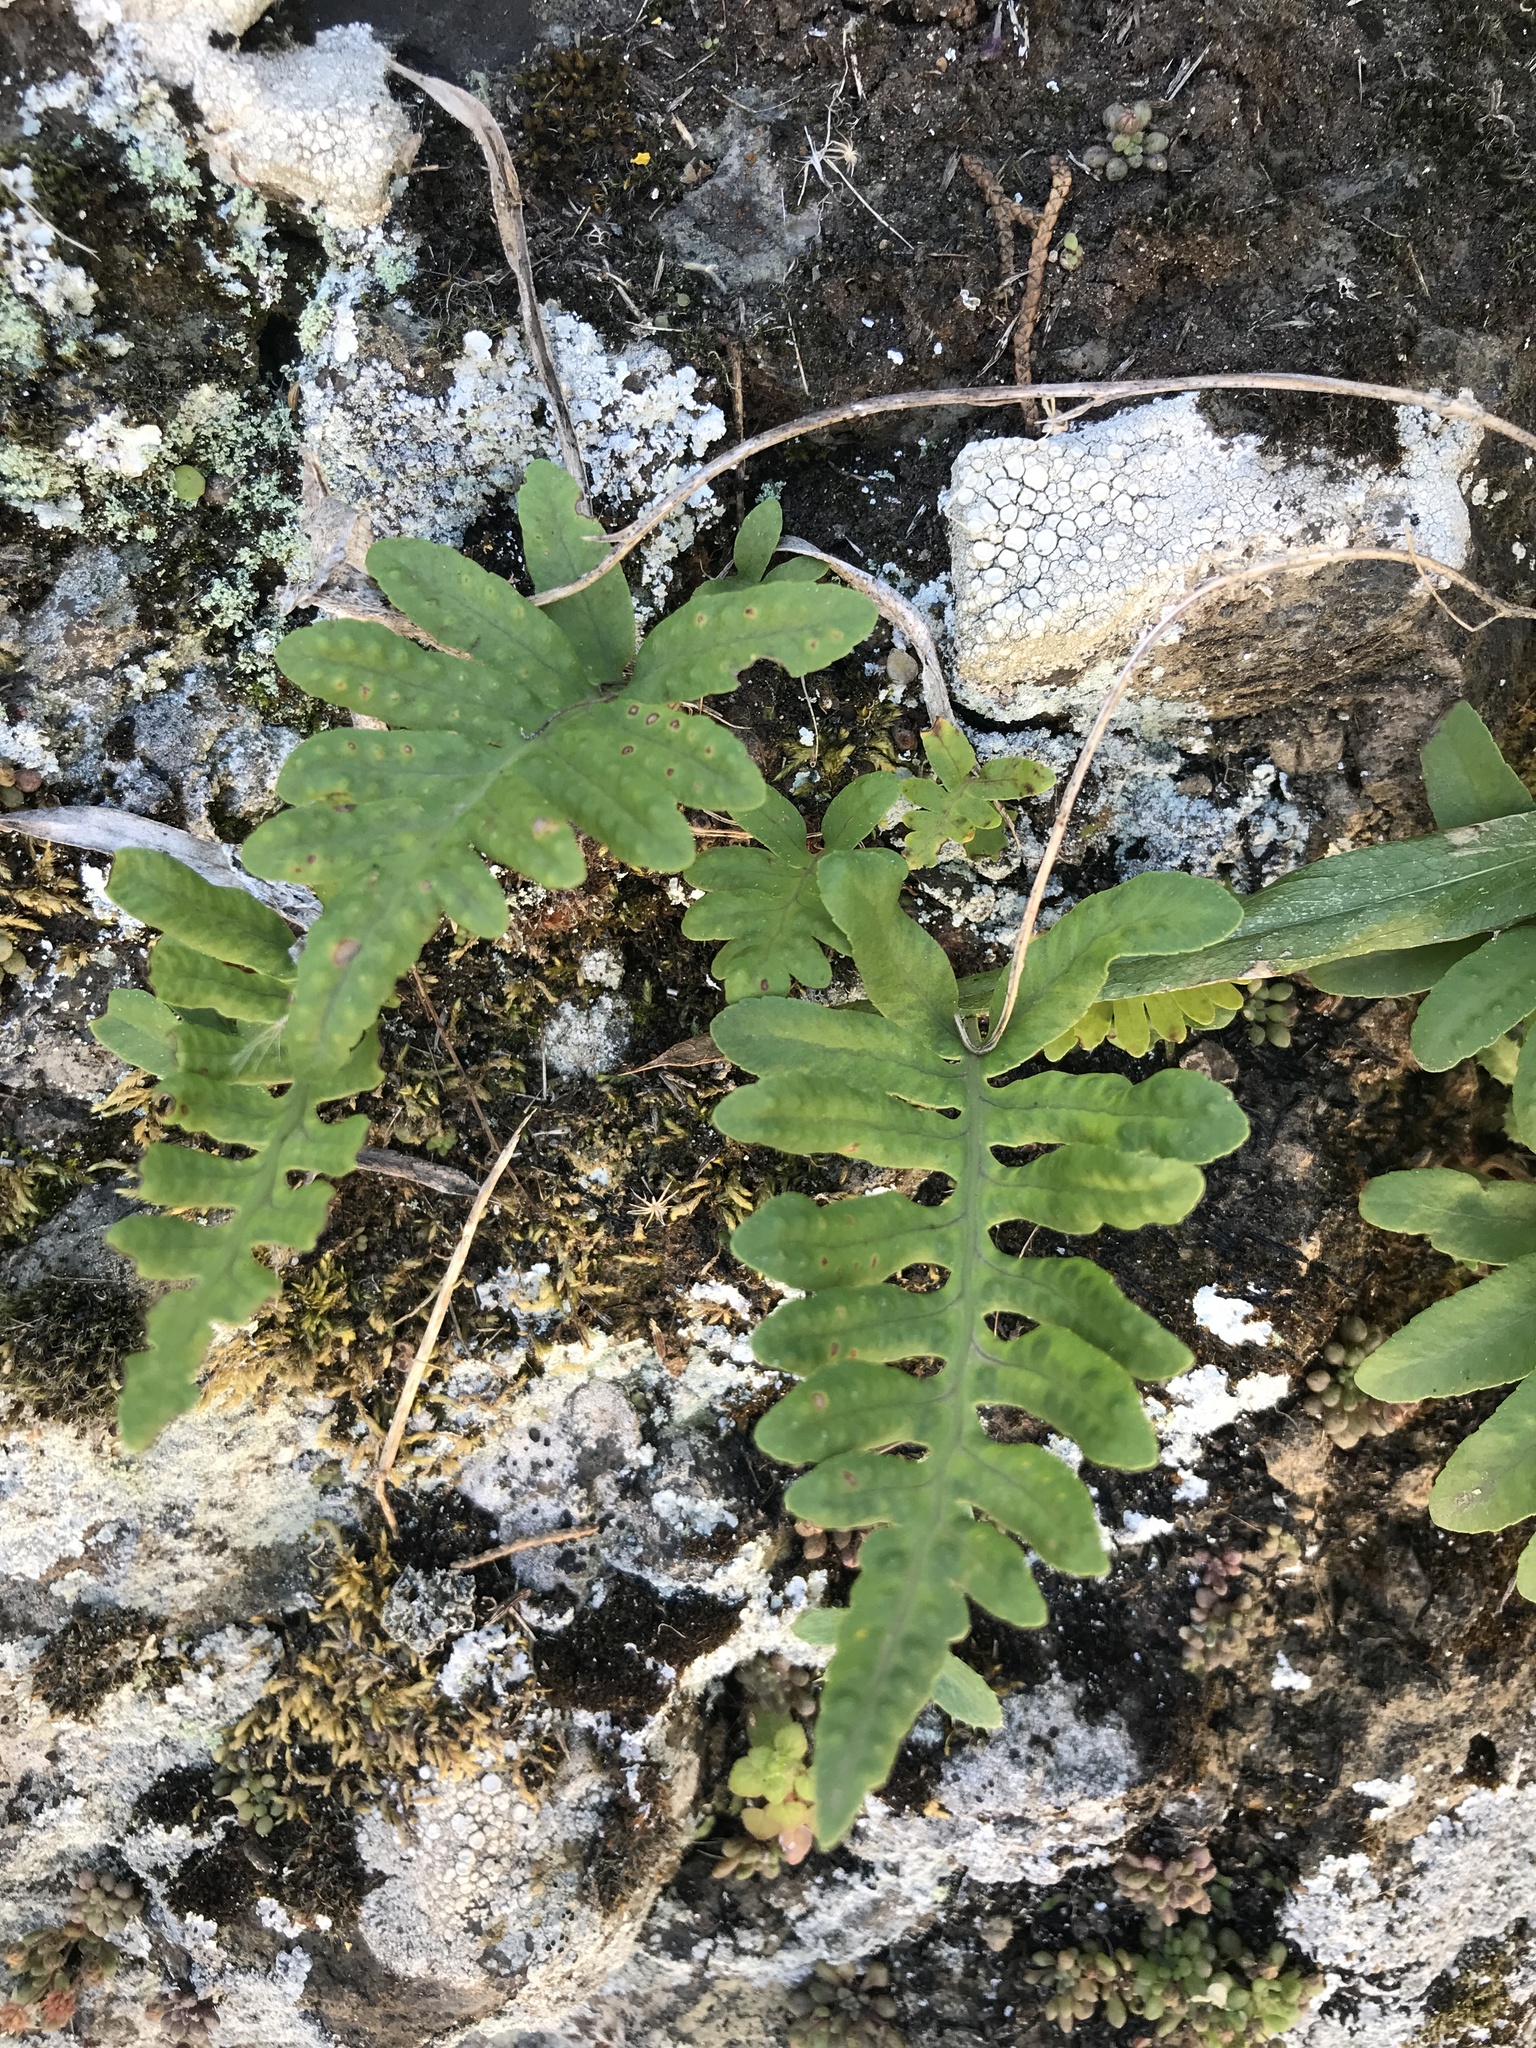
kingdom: Plantae
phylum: Tracheophyta
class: Polypodiopsida
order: Polypodiales
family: Polypodiaceae
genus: Polypodium
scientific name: Polypodium macaronesicum
